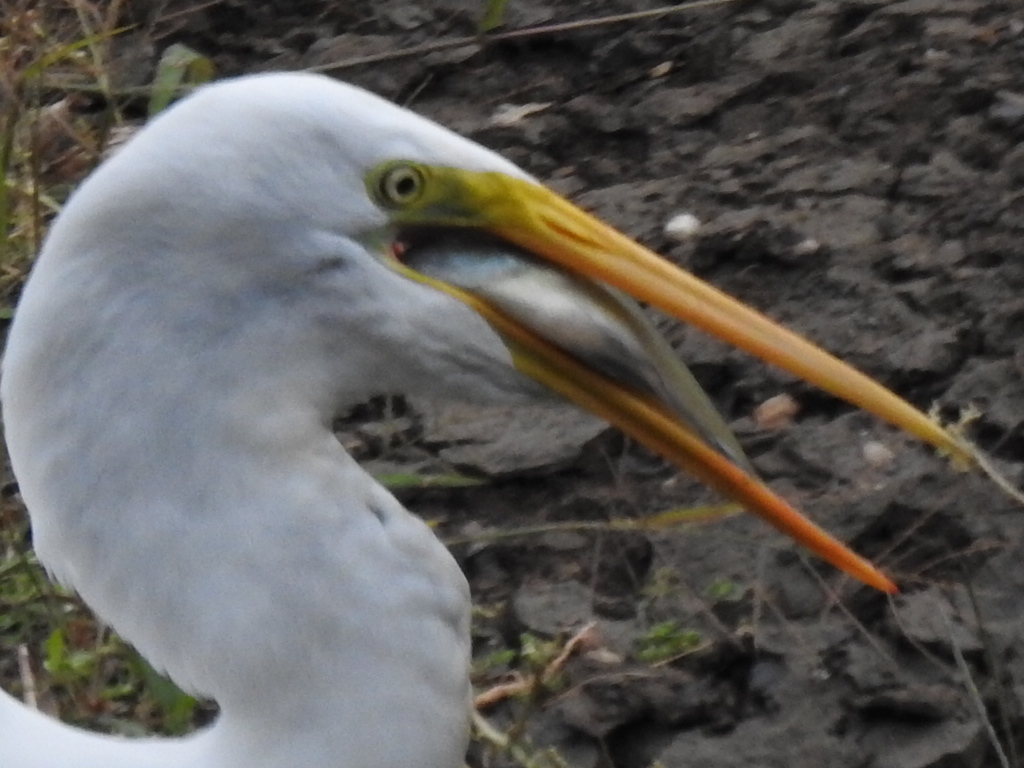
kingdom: Animalia
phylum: Chordata
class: Aves
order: Pelecaniformes
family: Ardeidae
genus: Ardea
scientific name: Ardea alba
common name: Great egret
